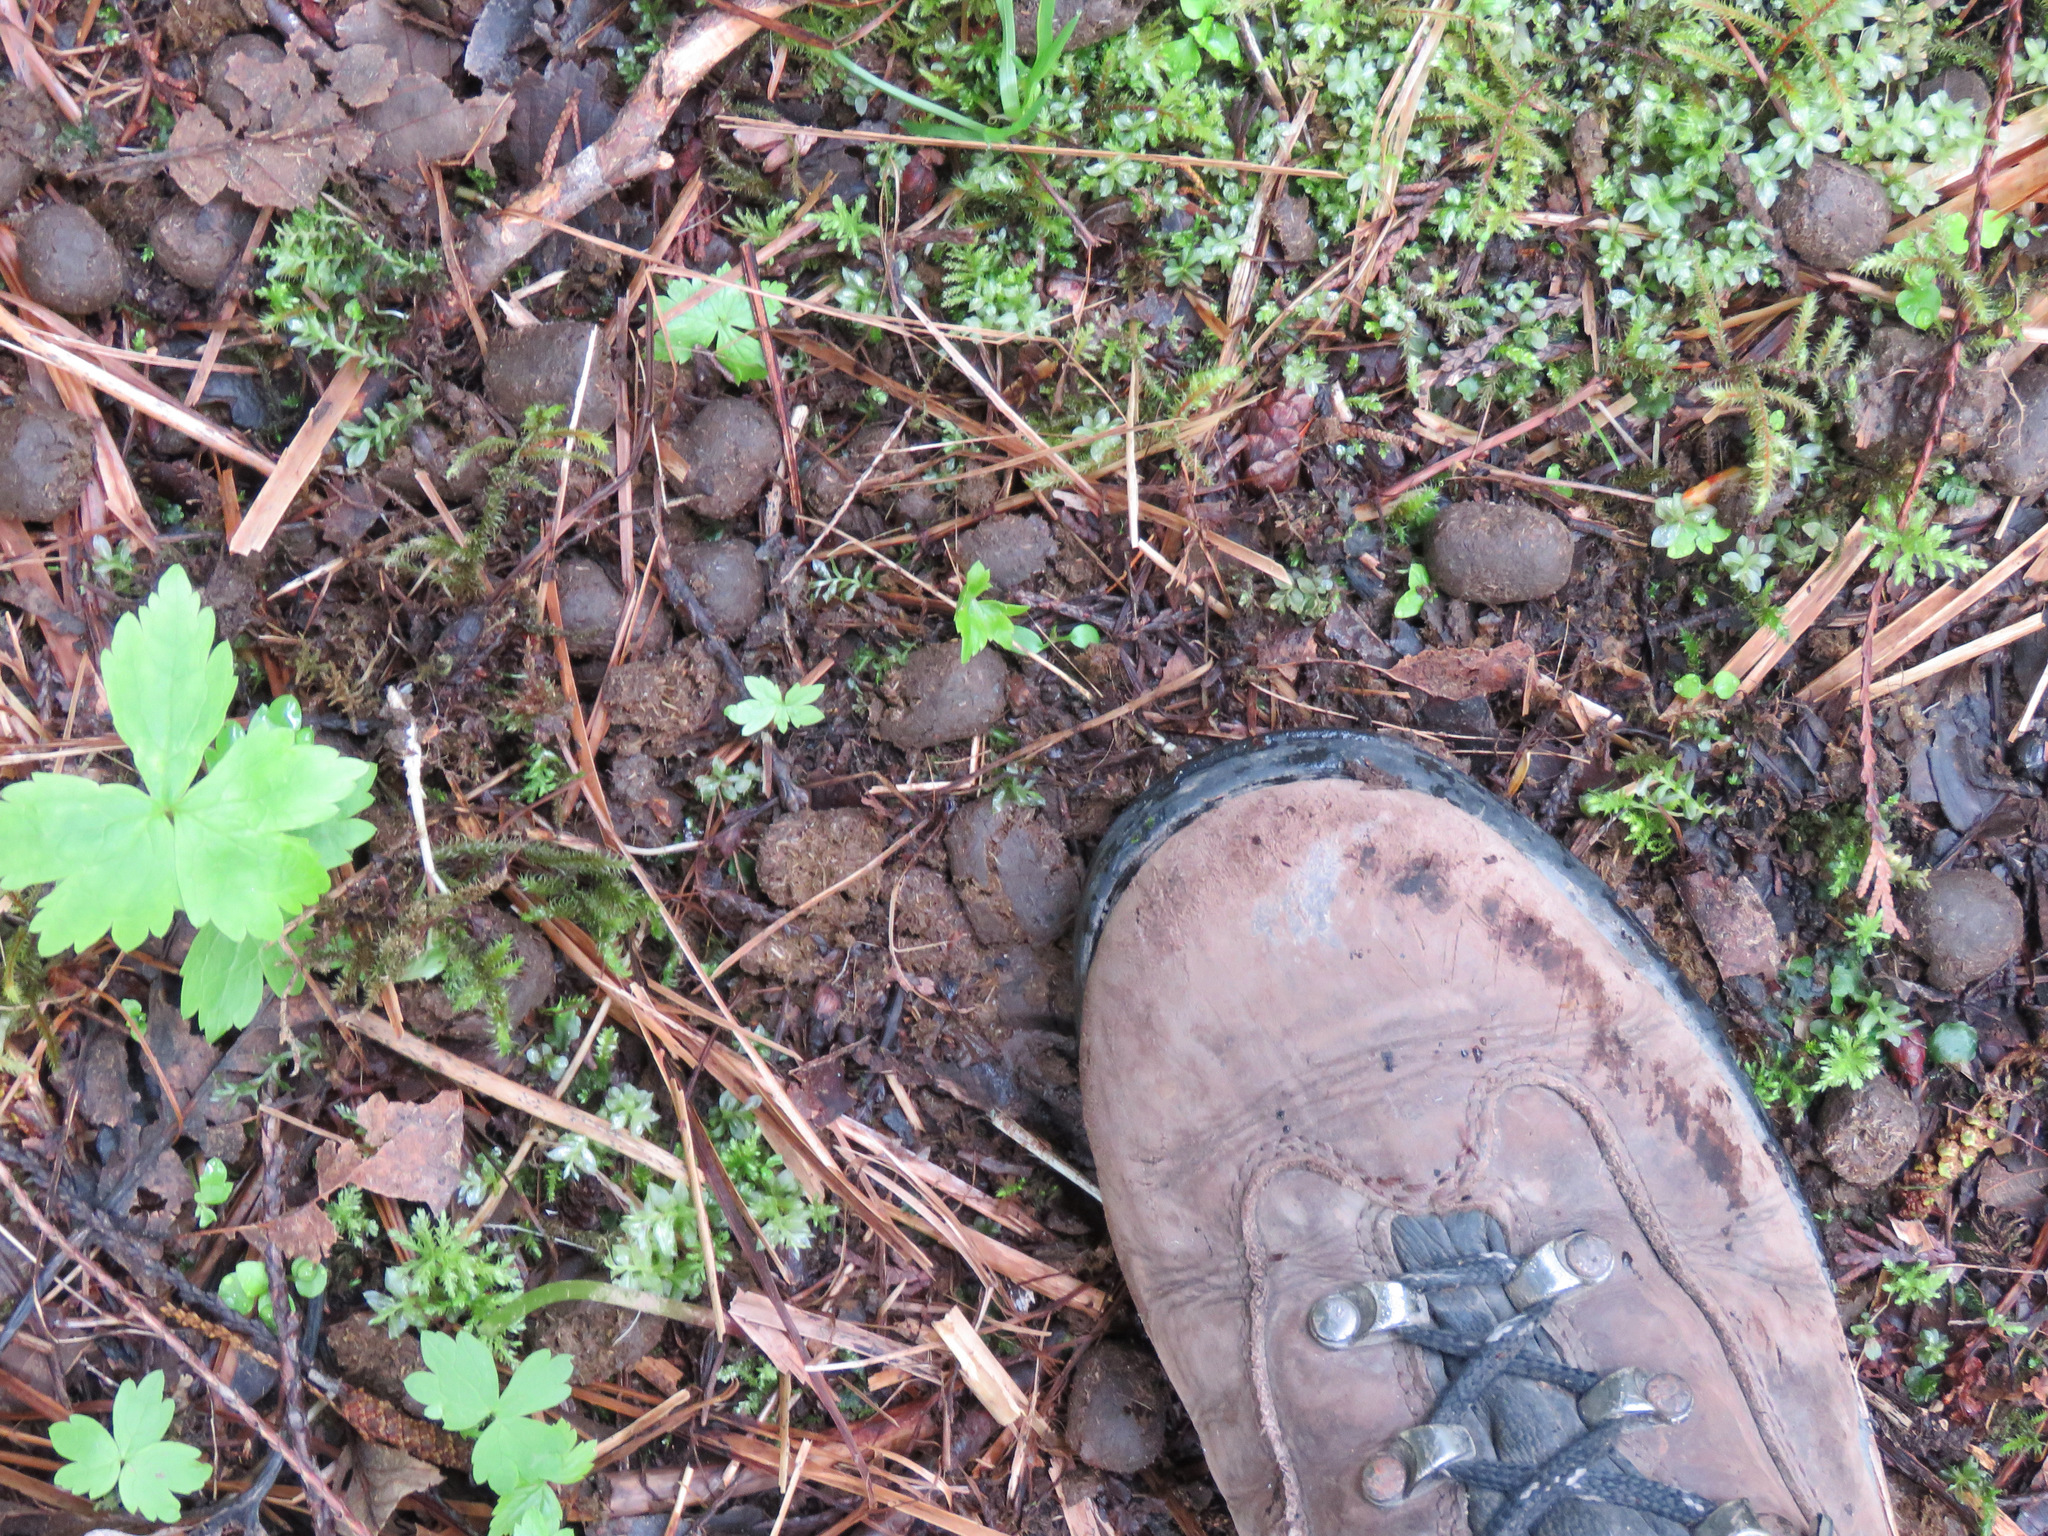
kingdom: Animalia
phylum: Chordata
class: Mammalia
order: Artiodactyla
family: Cervidae
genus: Cervus
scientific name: Cervus elaphus
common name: Red deer
